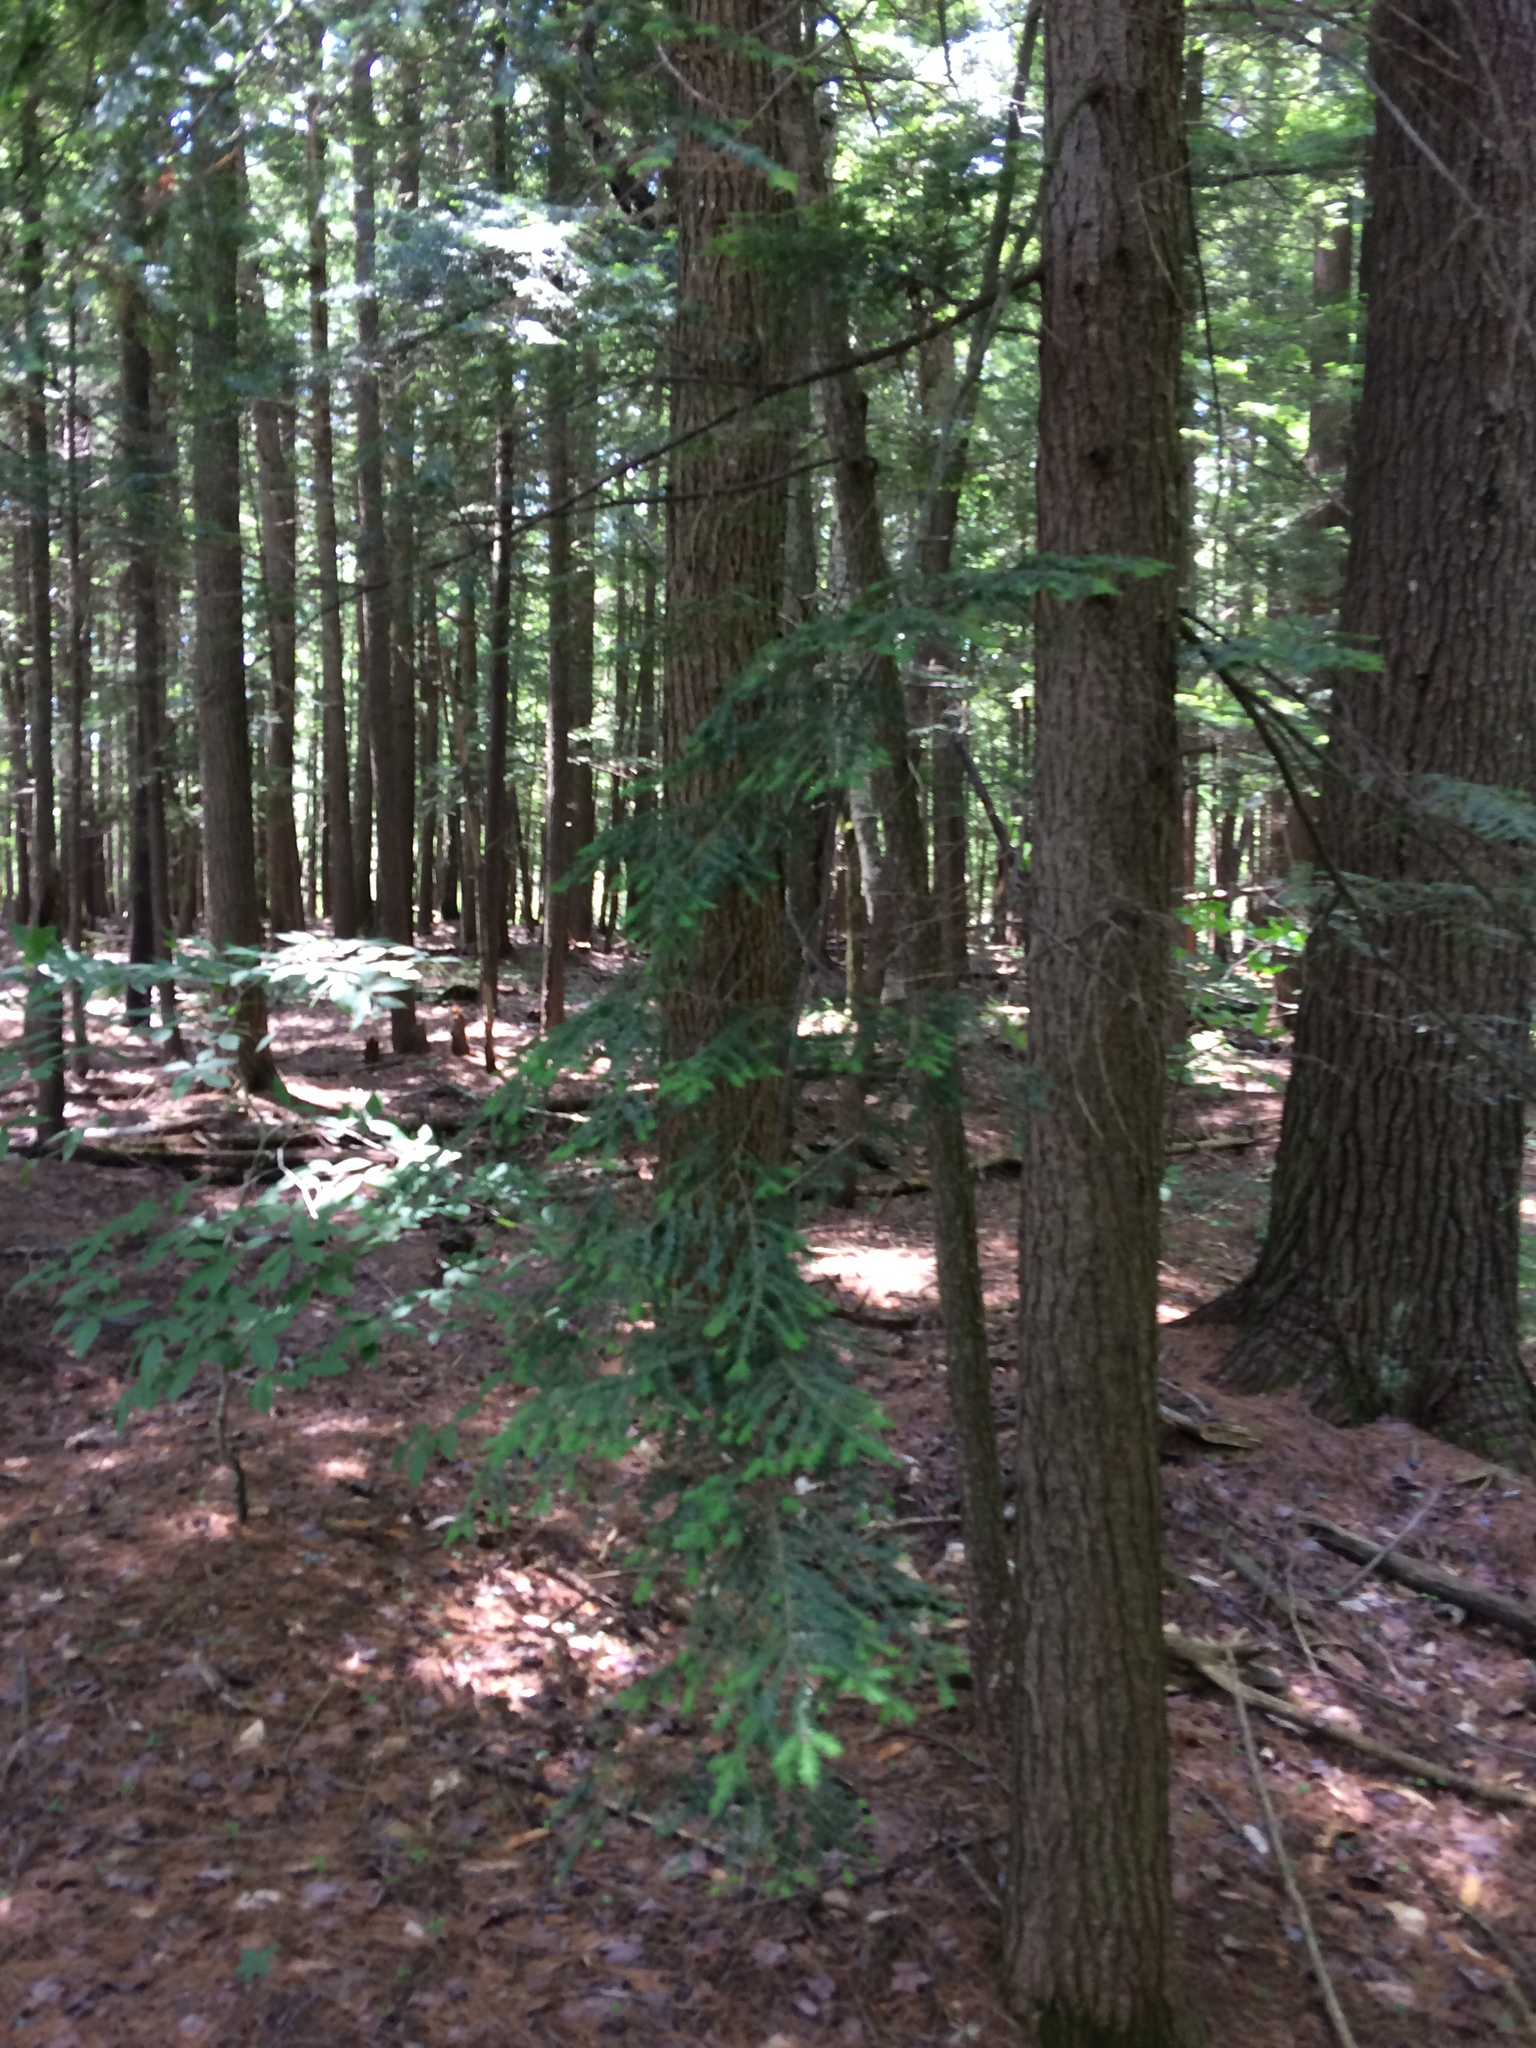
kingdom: Plantae
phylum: Tracheophyta
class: Pinopsida
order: Pinales
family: Pinaceae
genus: Tsuga
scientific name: Tsuga canadensis
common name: Eastern hemlock
